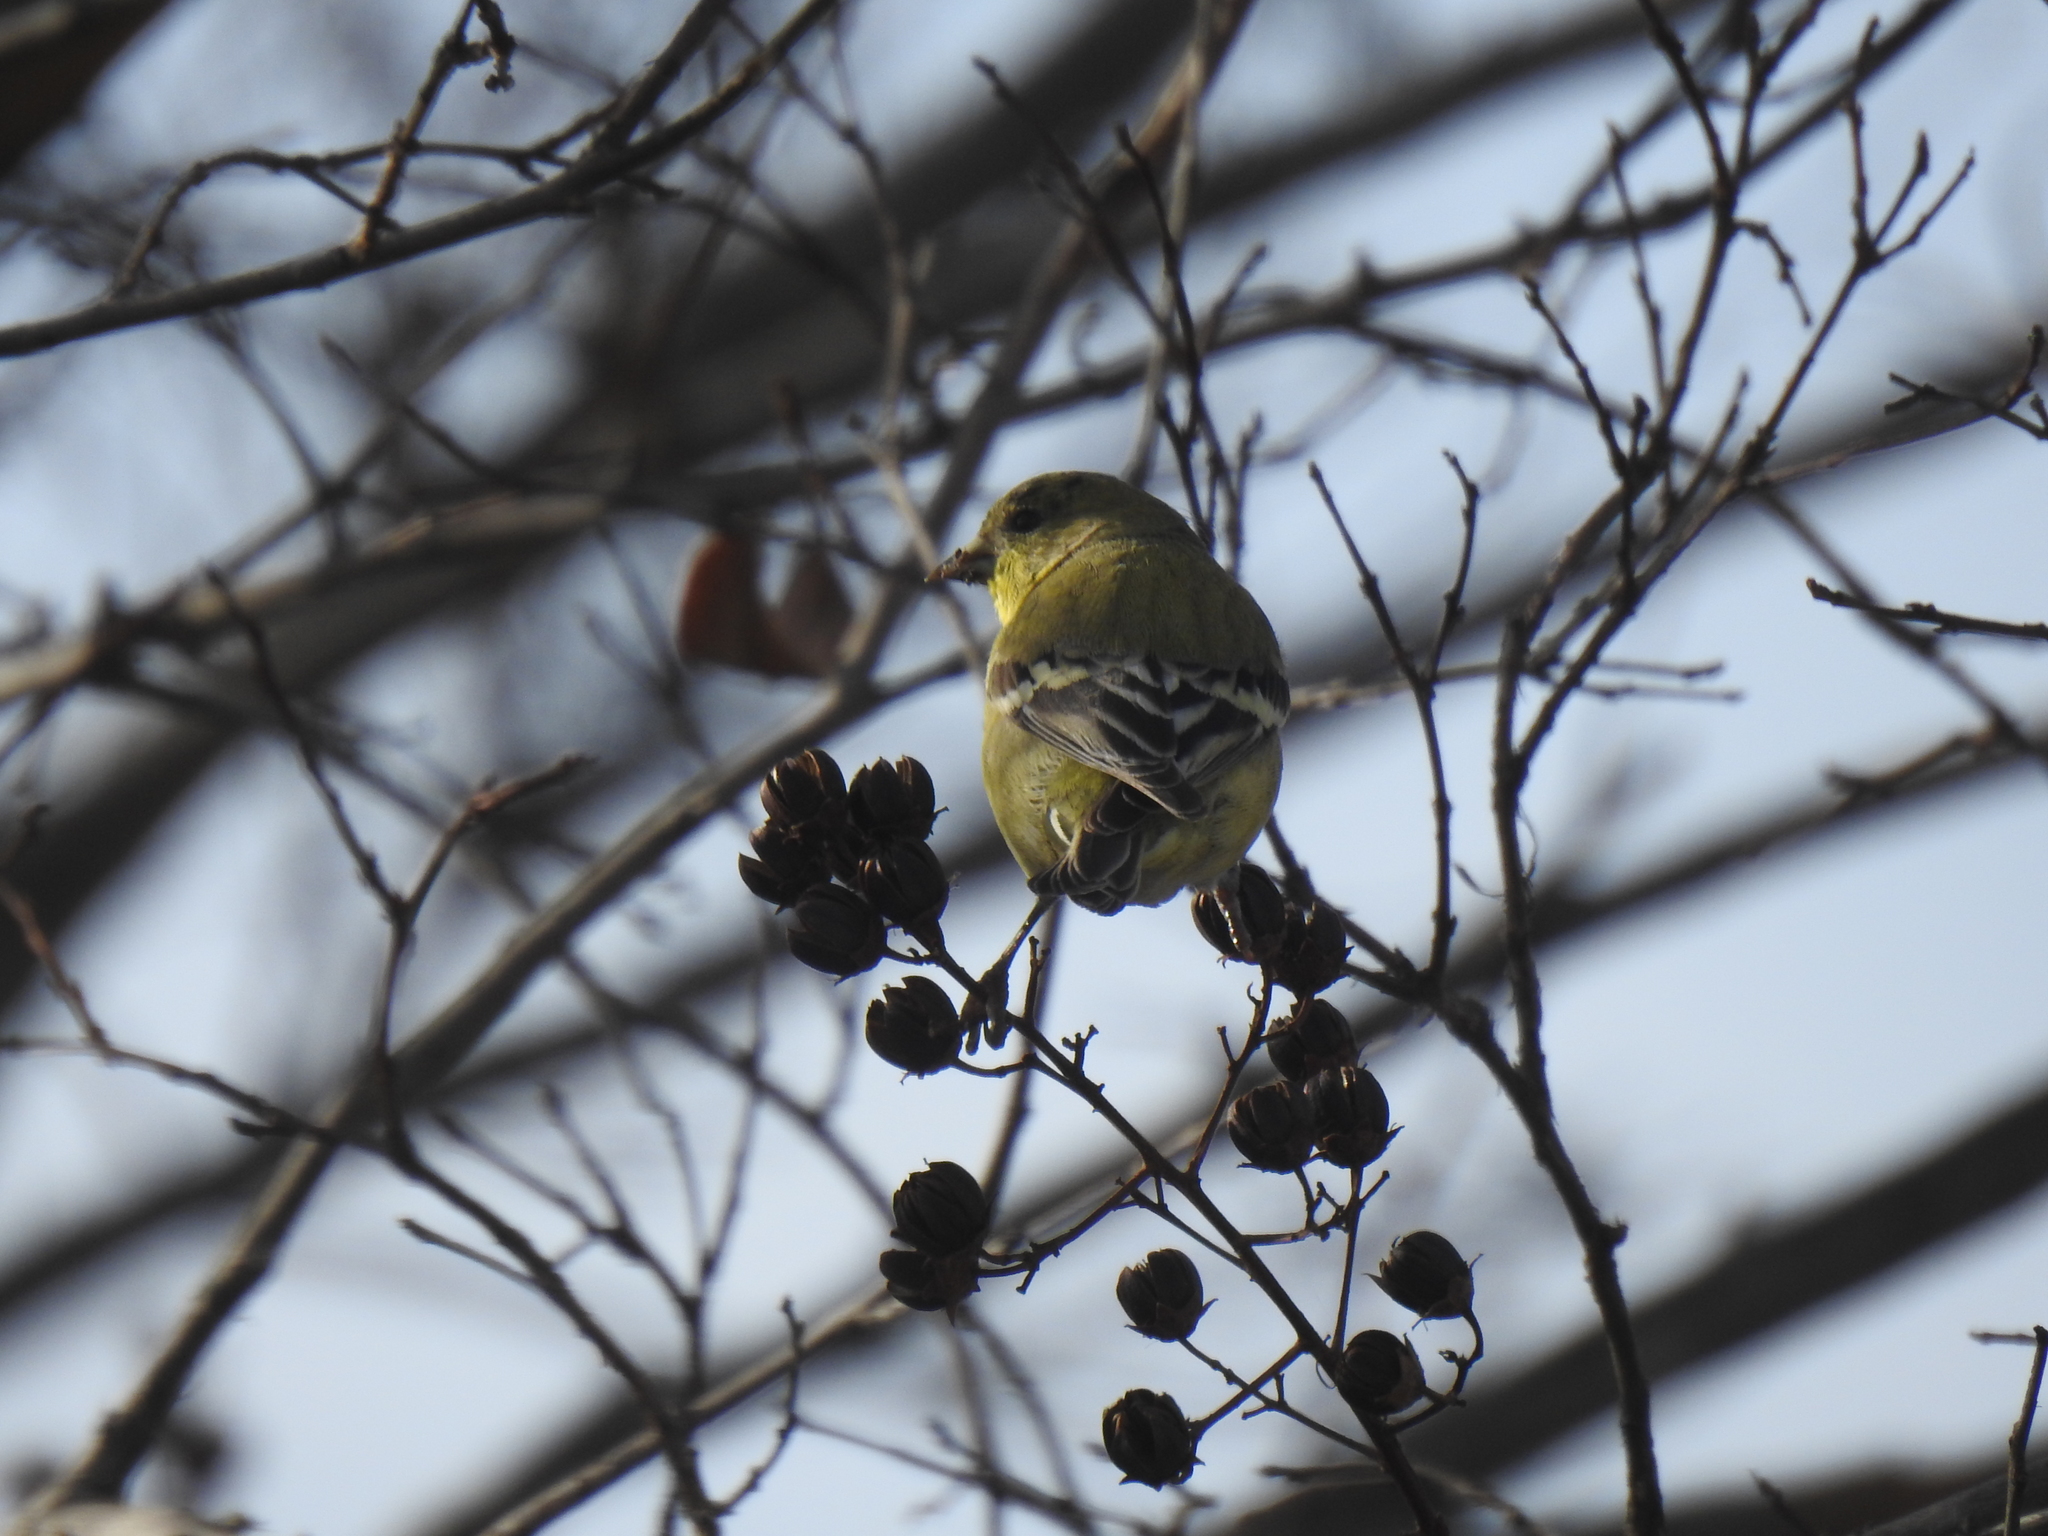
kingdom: Animalia
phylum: Chordata
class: Aves
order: Passeriformes
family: Fringillidae
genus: Spinus
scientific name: Spinus psaltria
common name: Lesser goldfinch
